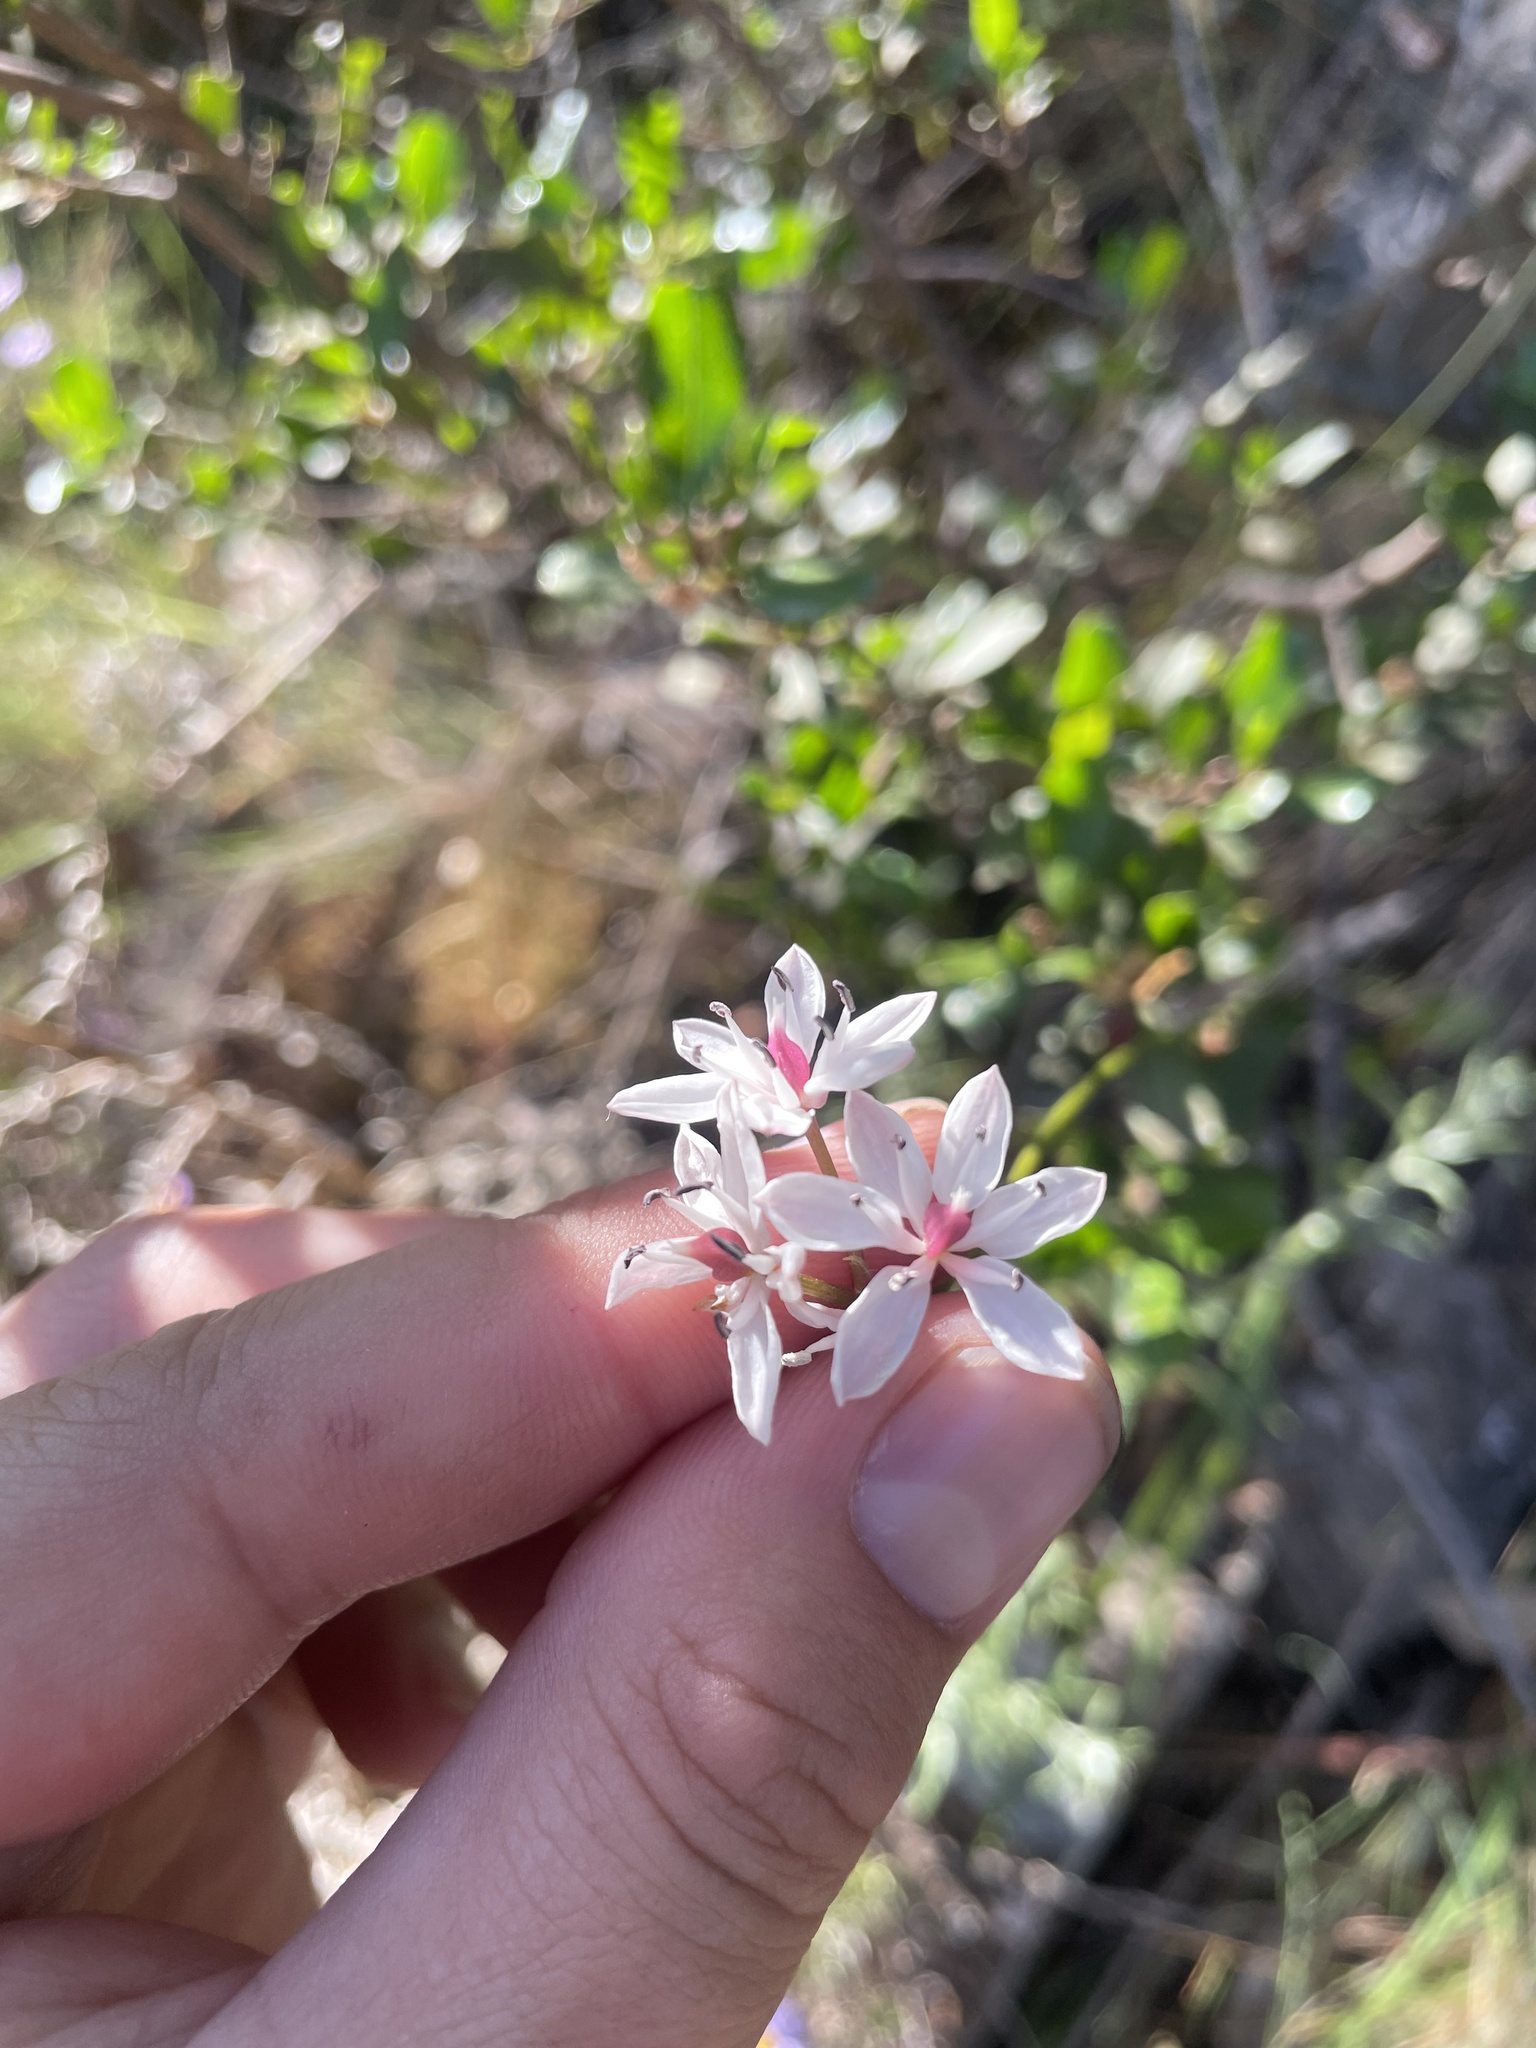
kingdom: Plantae
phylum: Tracheophyta
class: Liliopsida
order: Liliales
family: Colchicaceae
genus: Burchardia
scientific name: Burchardia umbellata
